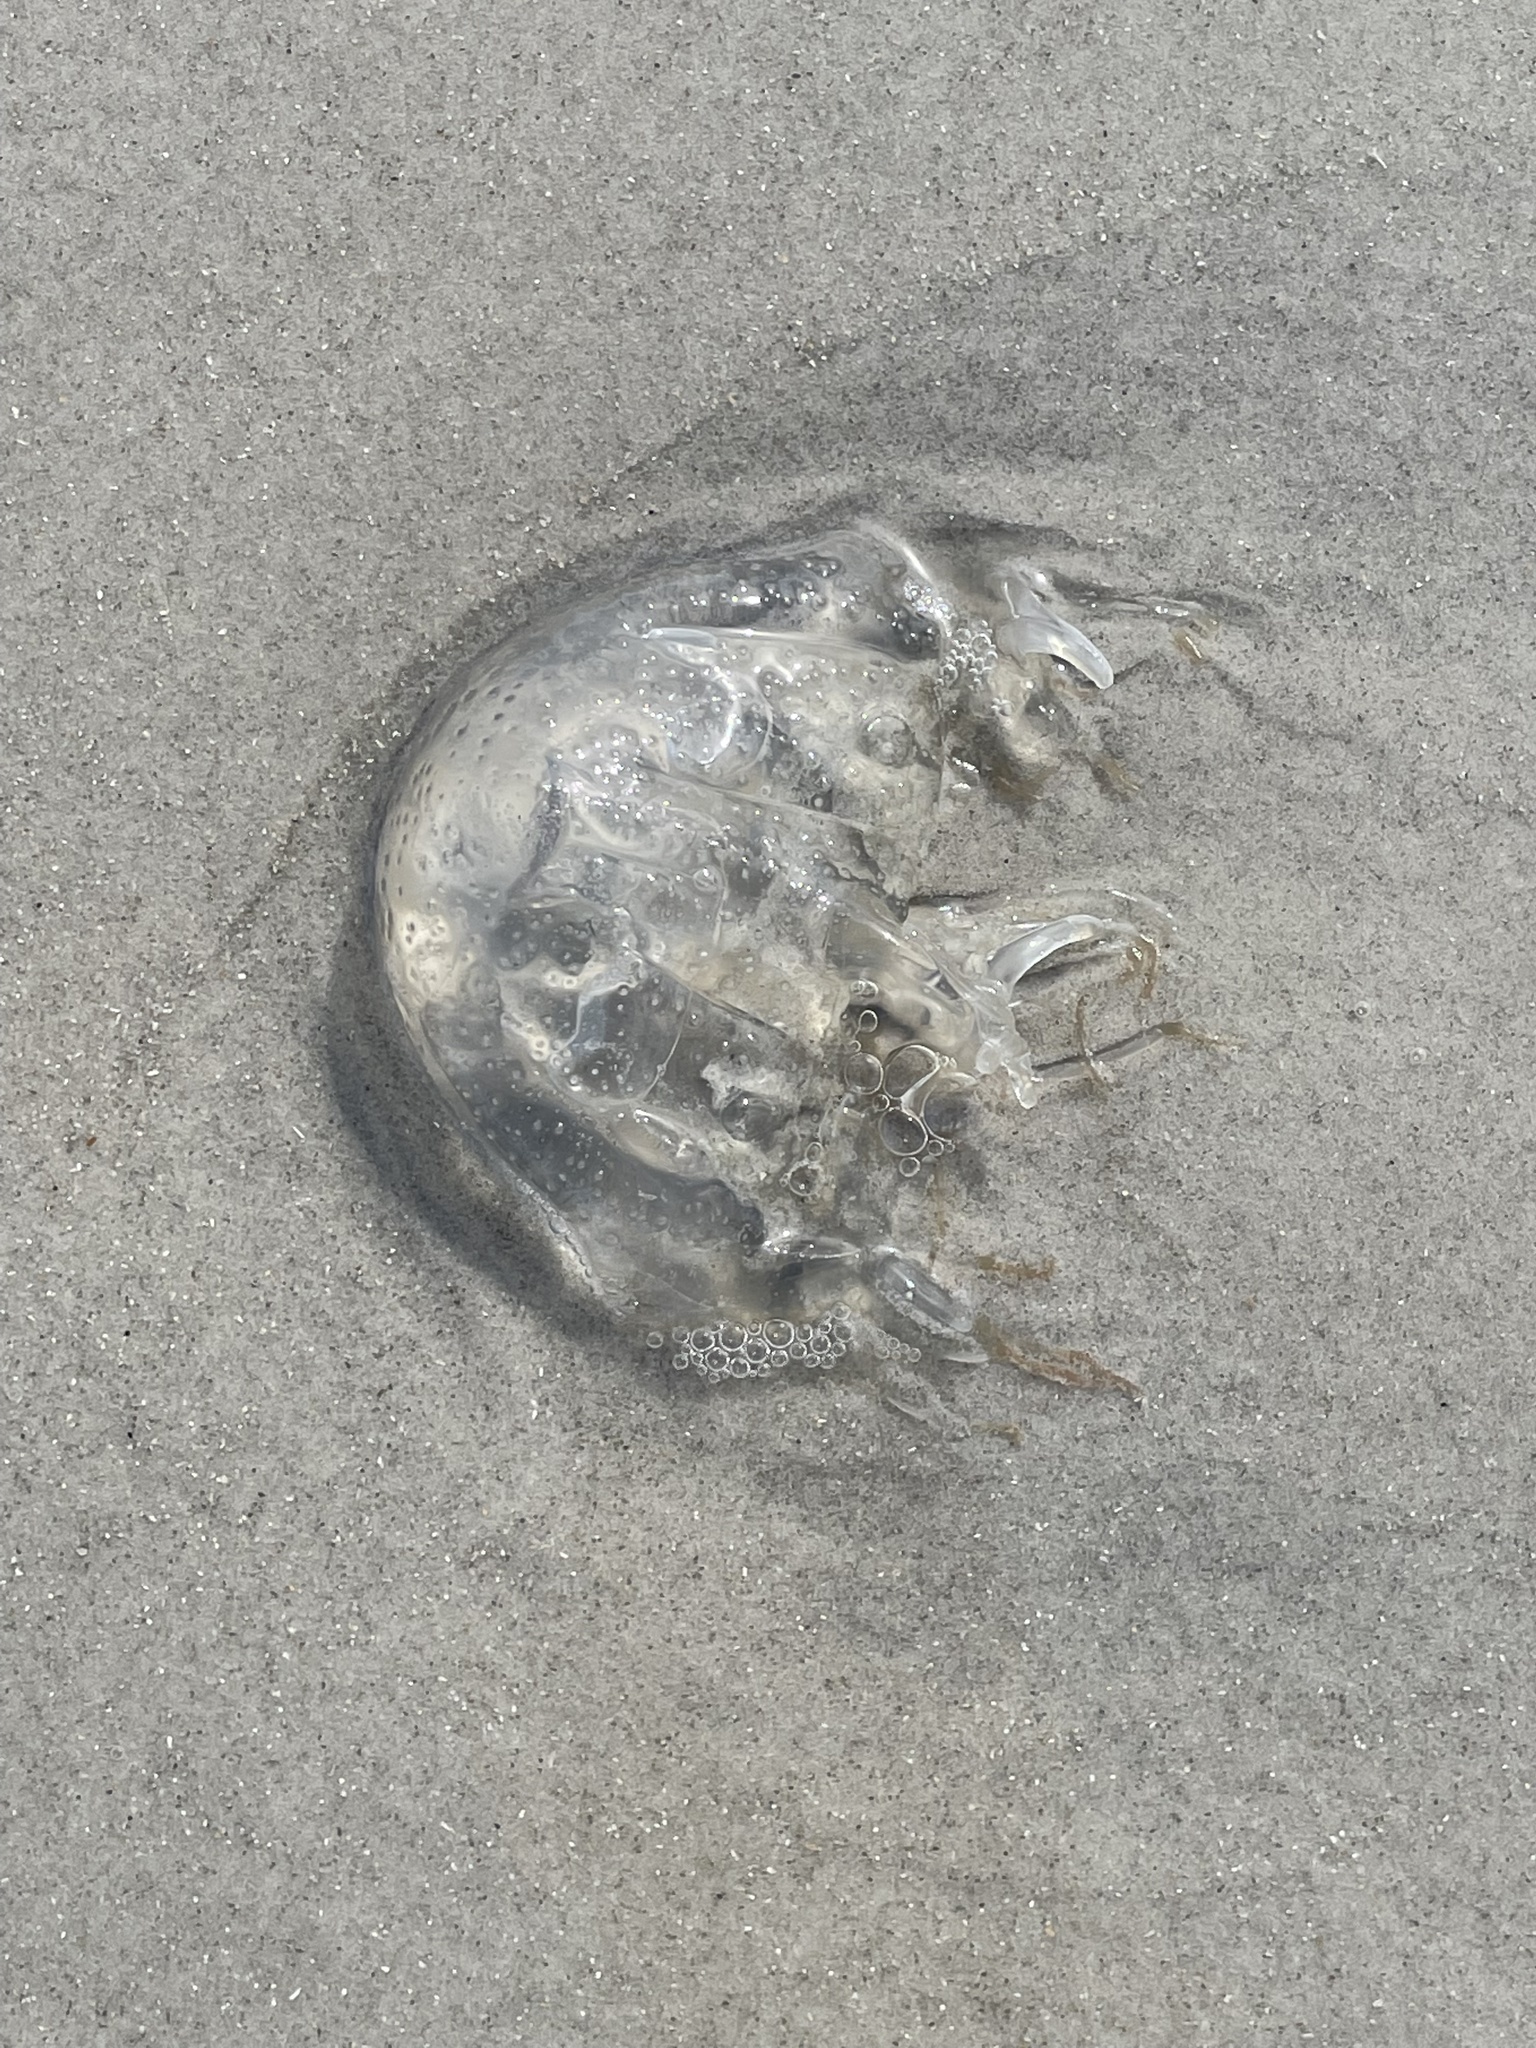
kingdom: Animalia
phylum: Cnidaria
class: Cubozoa
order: Chirodropida
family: Chiropsalmidae
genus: Chiropsalmus
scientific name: Chiropsalmus quadrumanus
